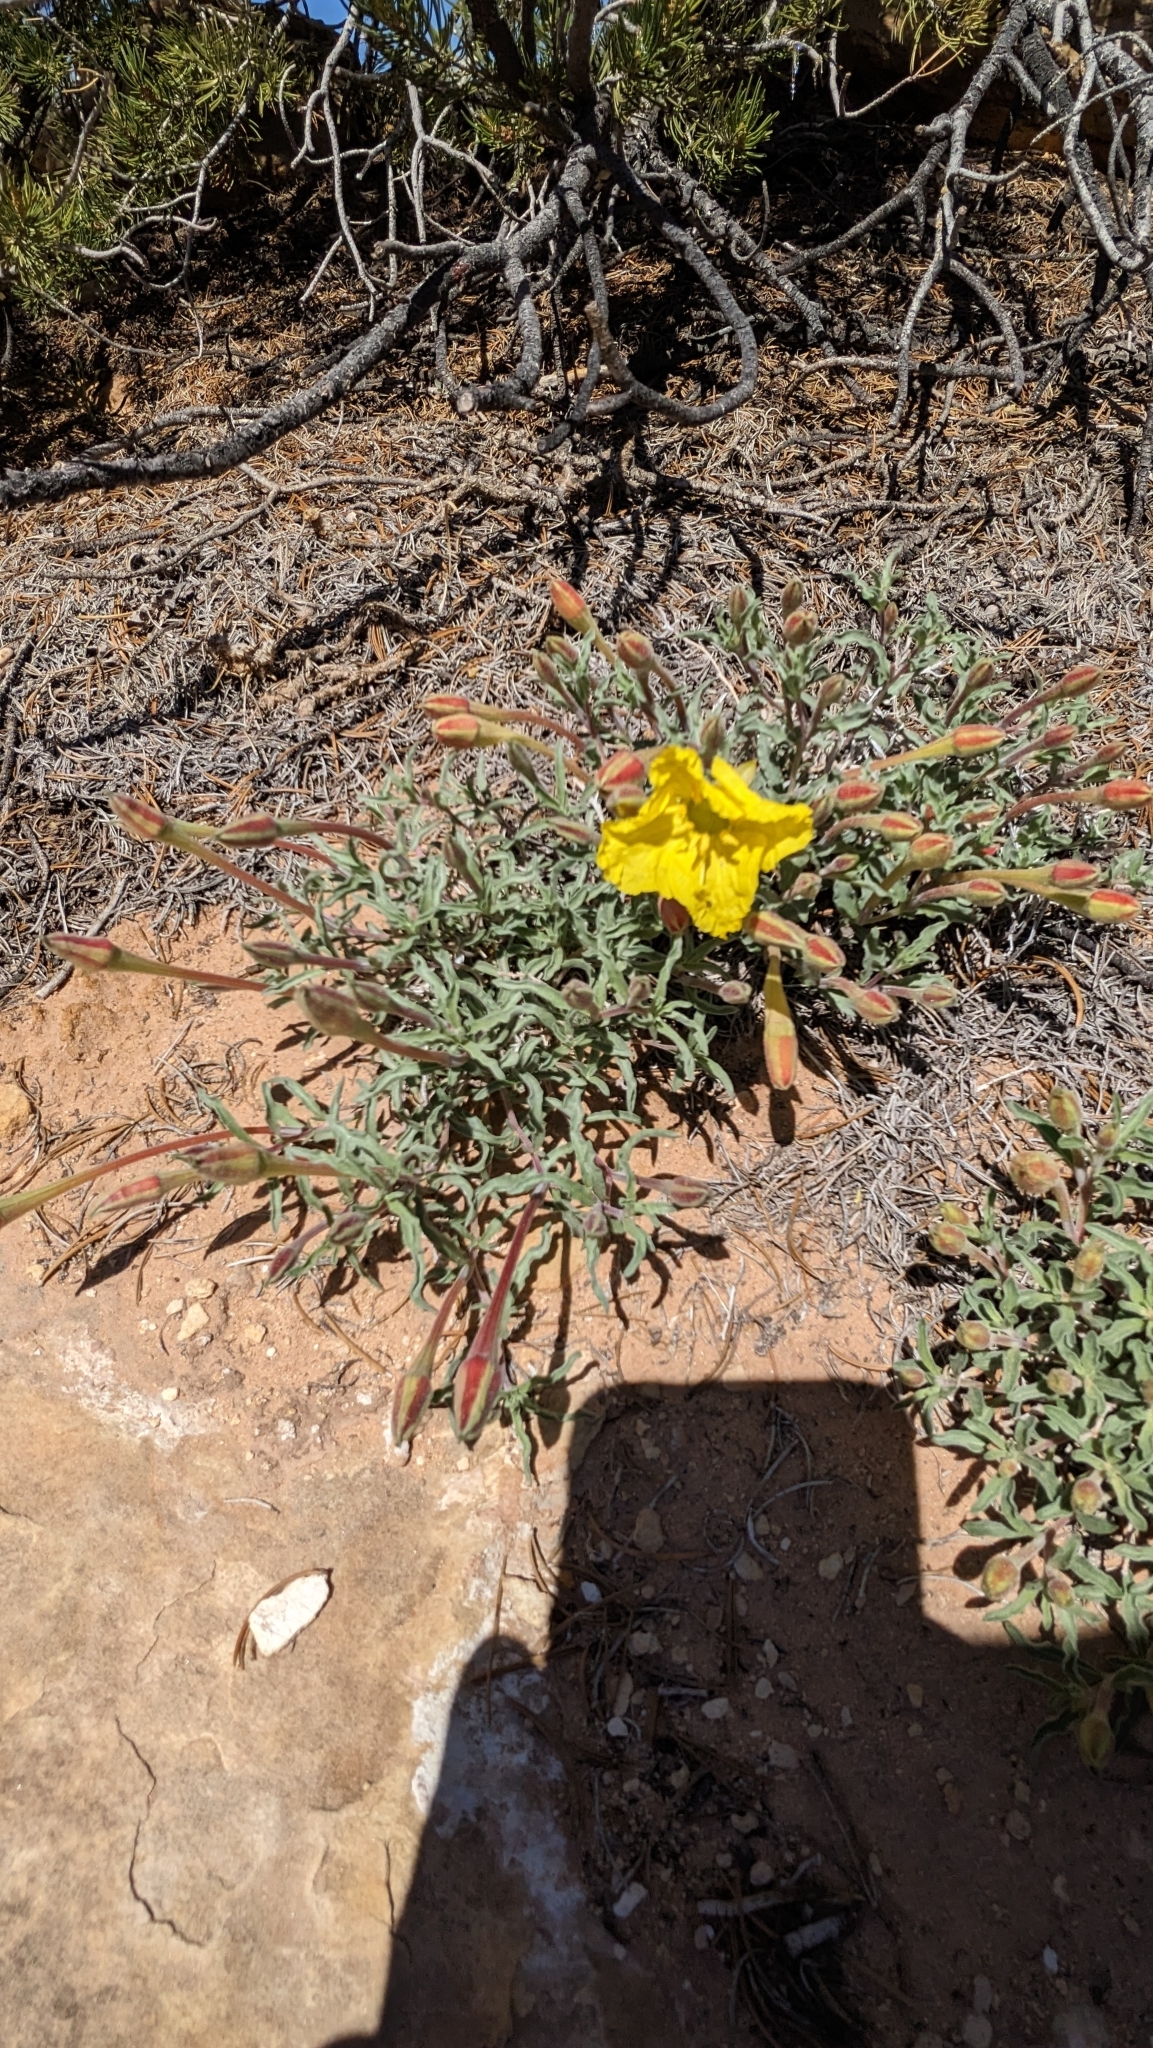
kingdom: Plantae
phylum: Tracheophyta
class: Magnoliopsida
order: Myrtales
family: Onagraceae
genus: Oenothera
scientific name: Oenothera lavandulifolia
